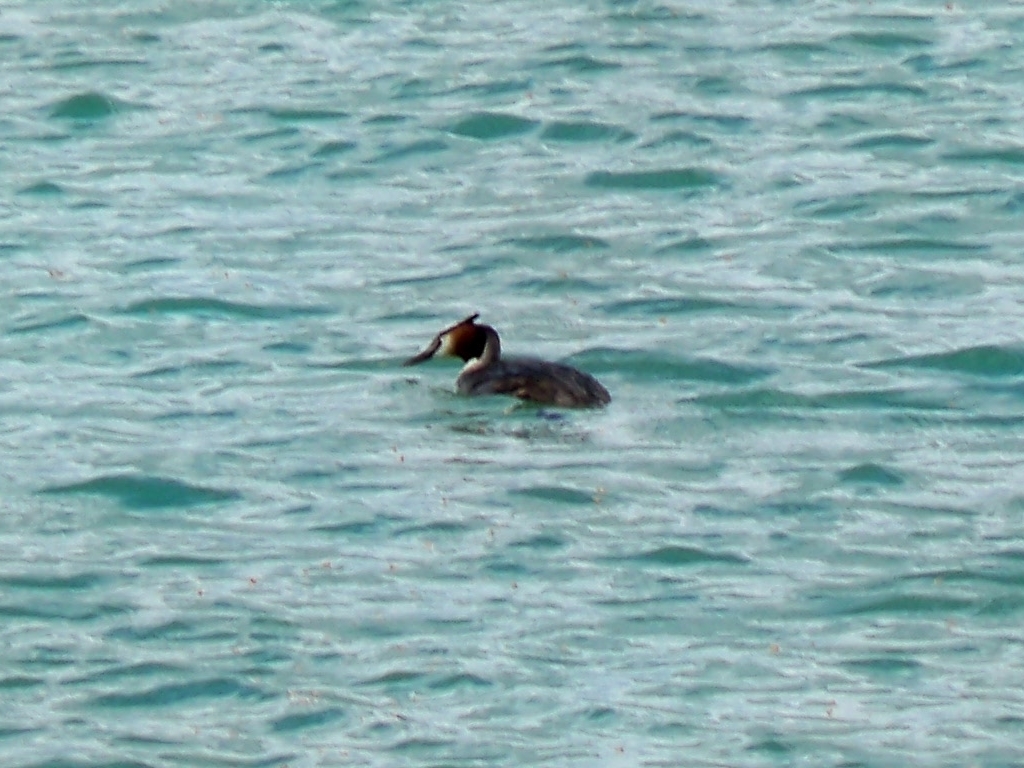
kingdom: Animalia
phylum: Chordata
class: Aves
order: Podicipediformes
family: Podicipedidae
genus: Podiceps
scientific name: Podiceps cristatus
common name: Great crested grebe
